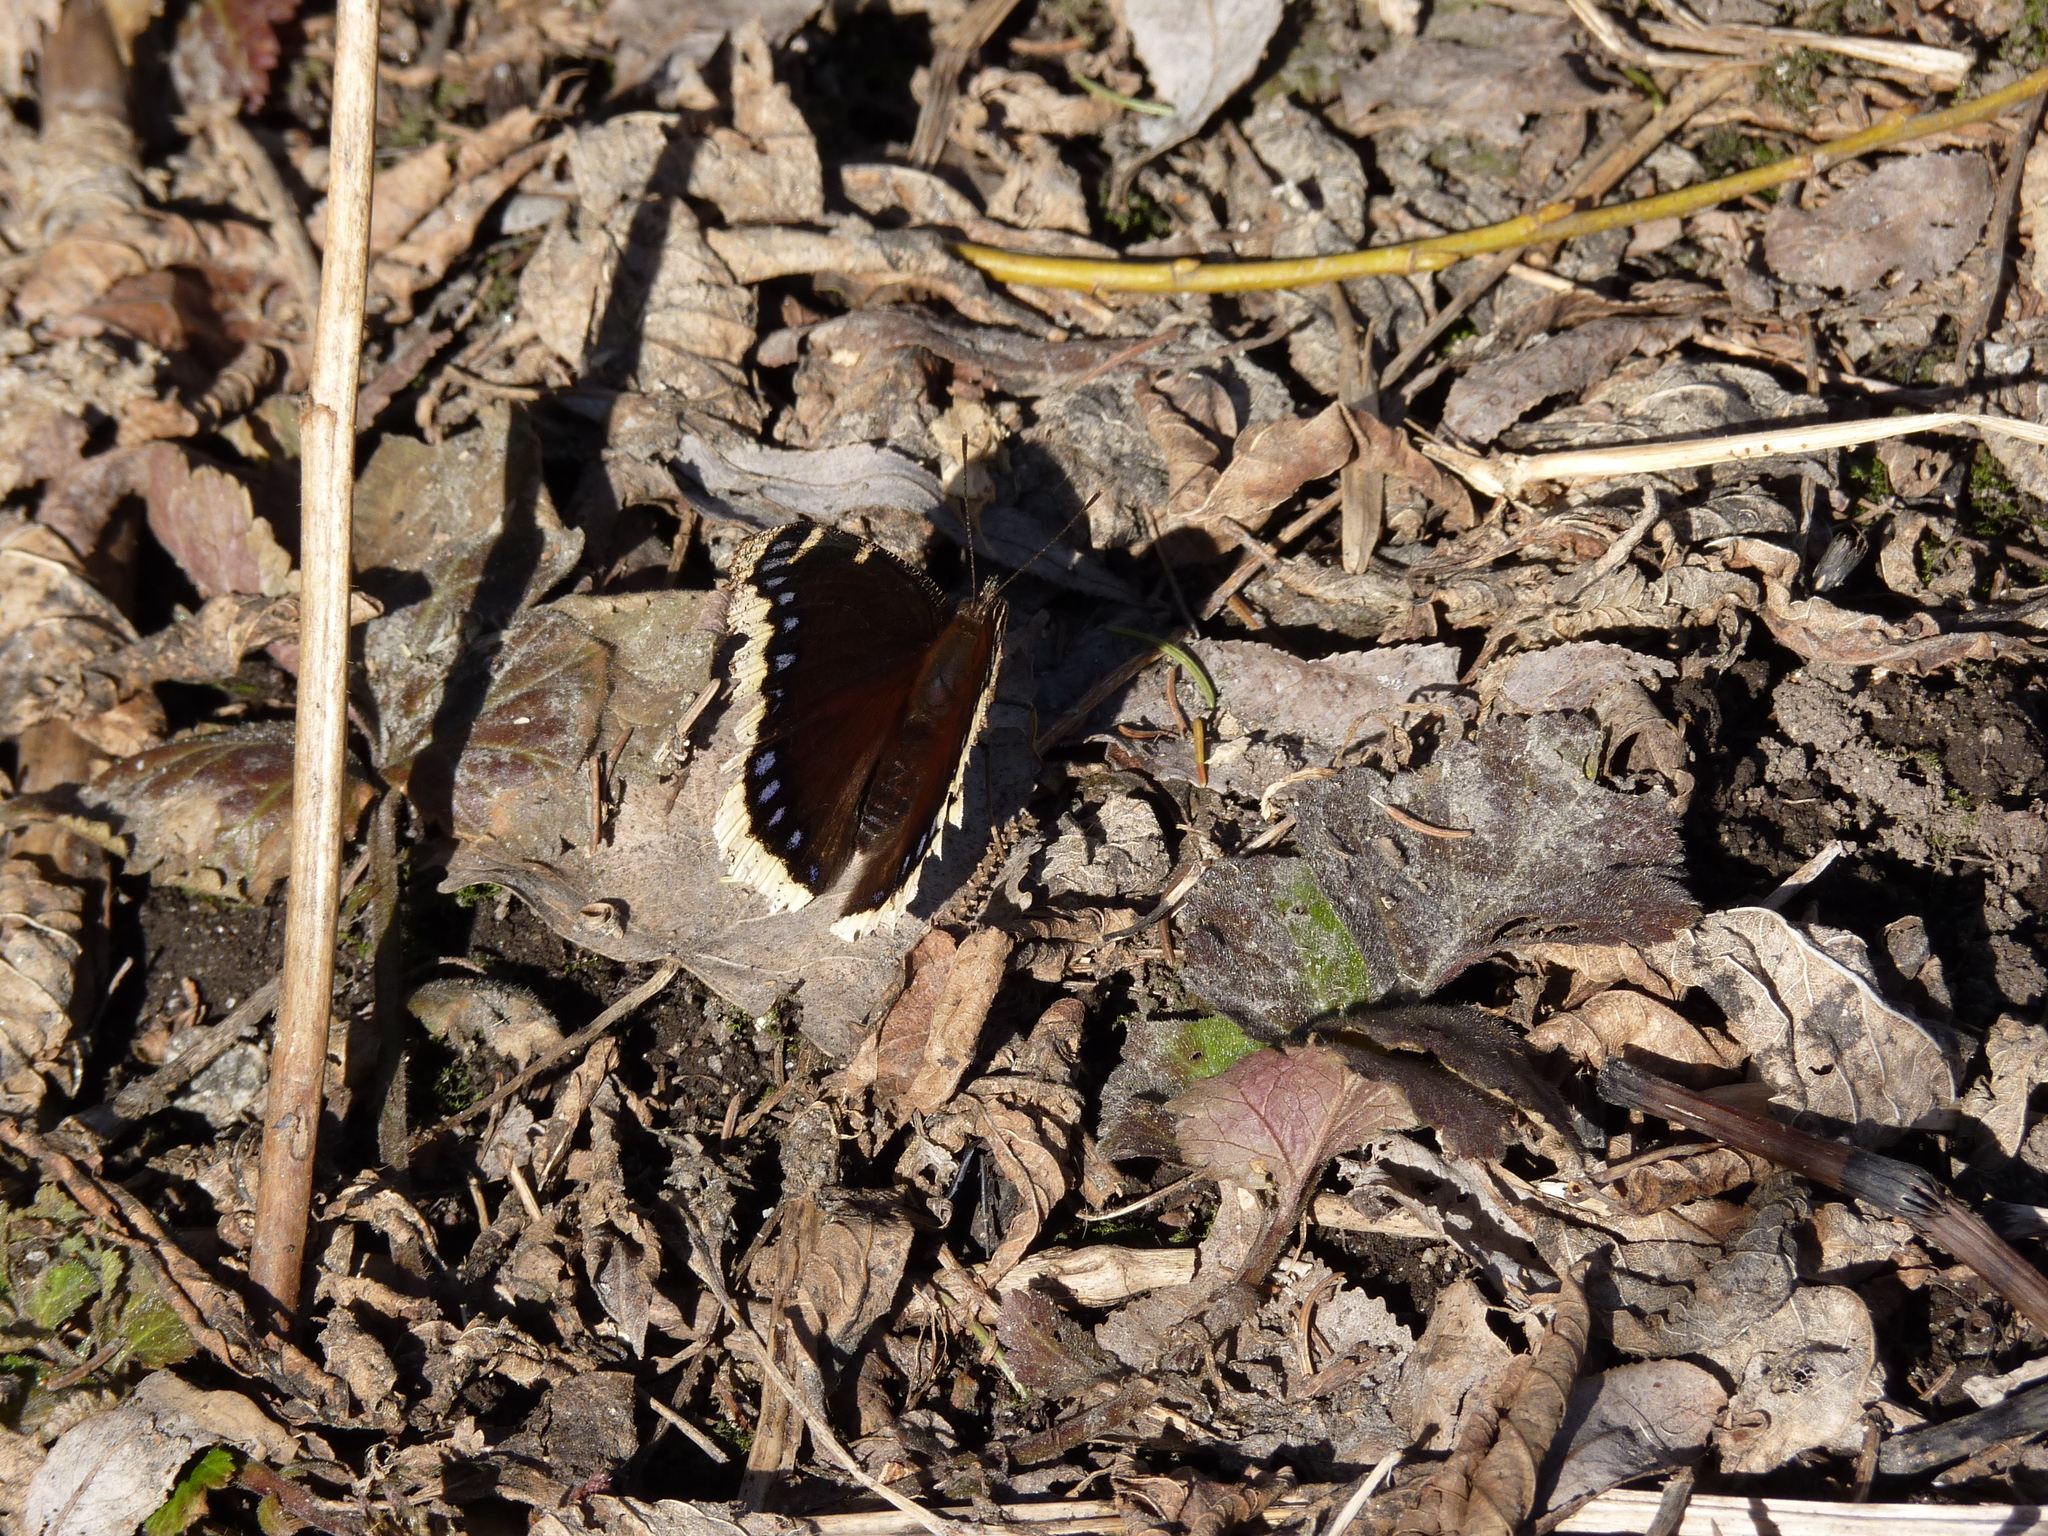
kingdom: Animalia
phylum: Arthropoda
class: Insecta
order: Lepidoptera
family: Nymphalidae
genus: Nymphalis
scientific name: Nymphalis antiopa
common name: Camberwell beauty
